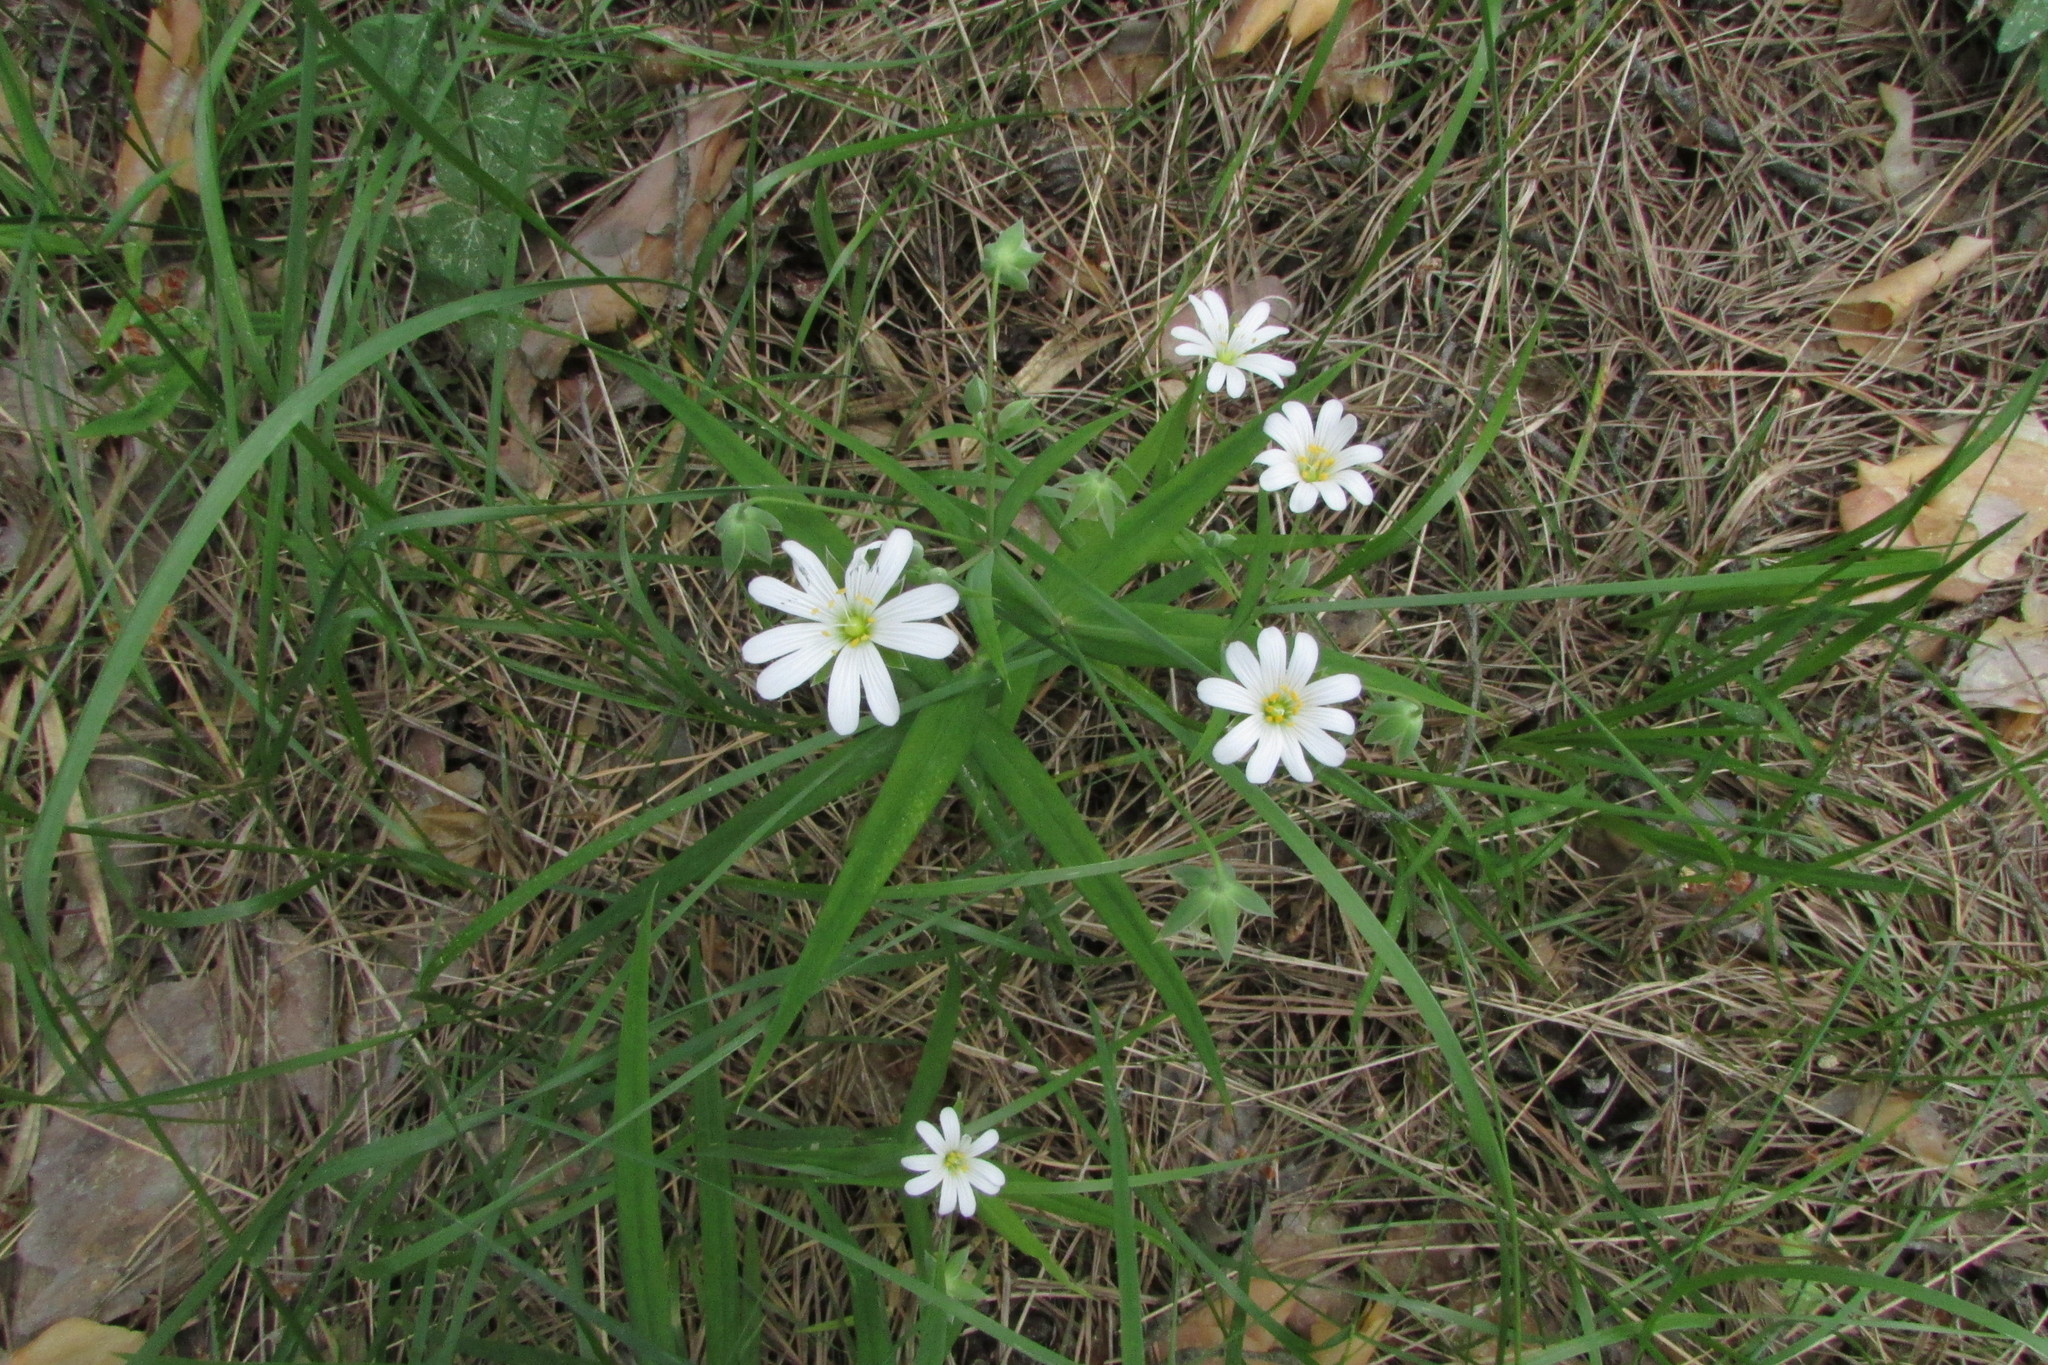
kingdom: Plantae
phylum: Tracheophyta
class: Magnoliopsida
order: Caryophyllales
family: Caryophyllaceae
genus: Rabelera
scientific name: Rabelera holostea
